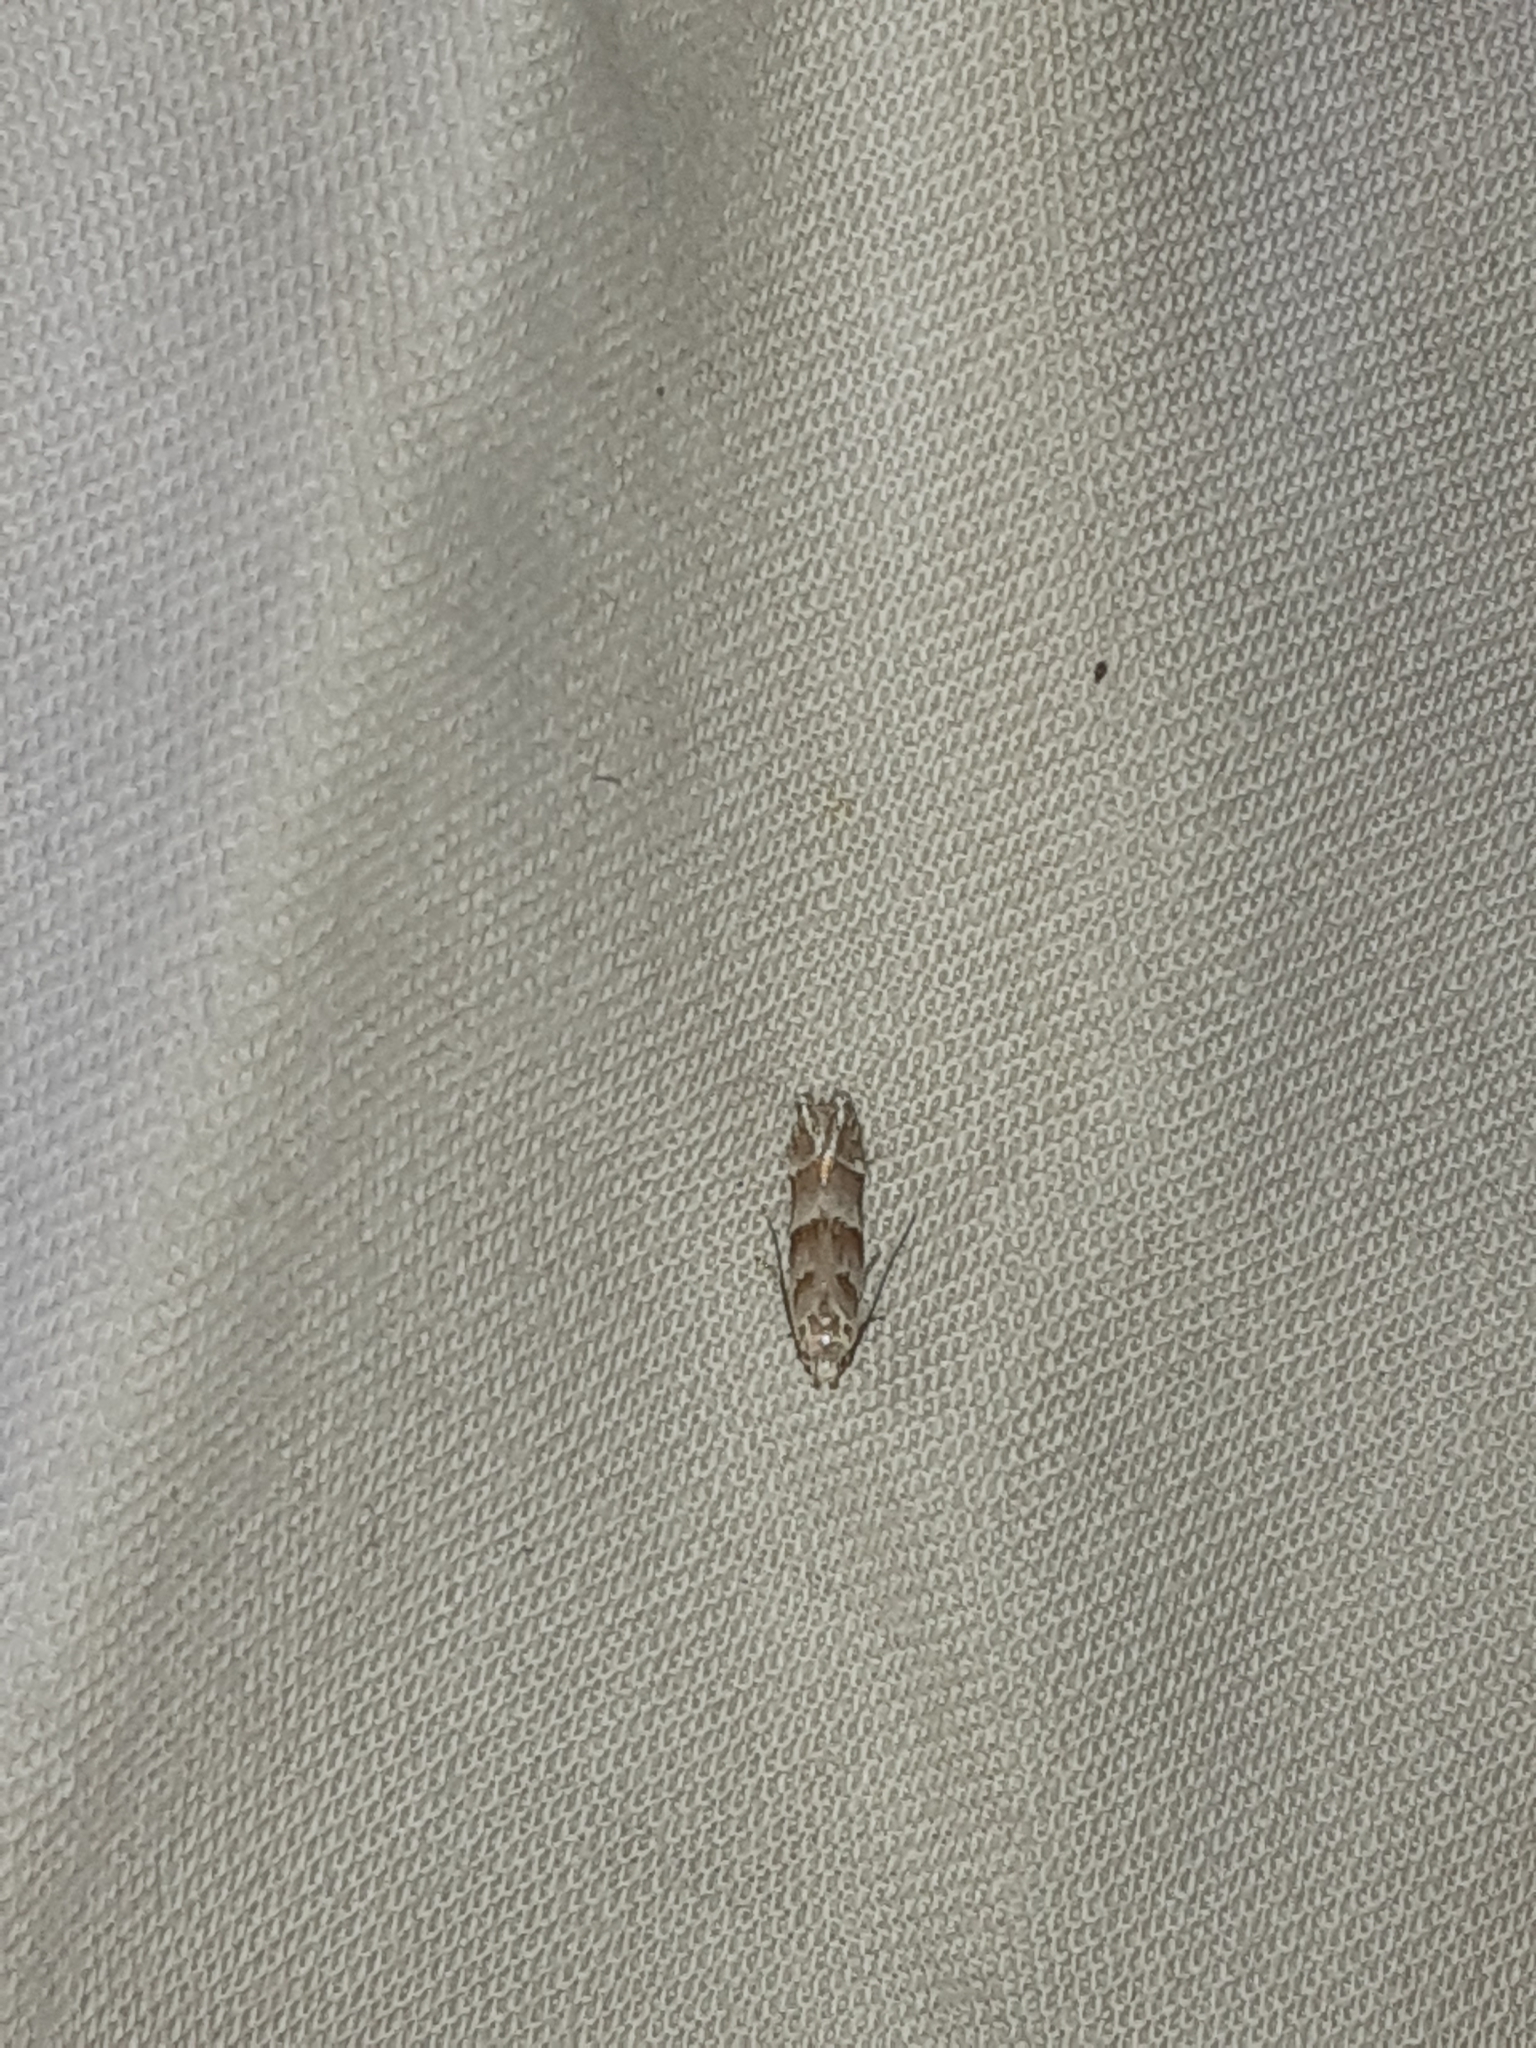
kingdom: Animalia
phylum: Arthropoda
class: Insecta
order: Lepidoptera
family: Gelechiidae
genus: Battaristis
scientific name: Battaristis vittella
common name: Orange stripe-backed moth
